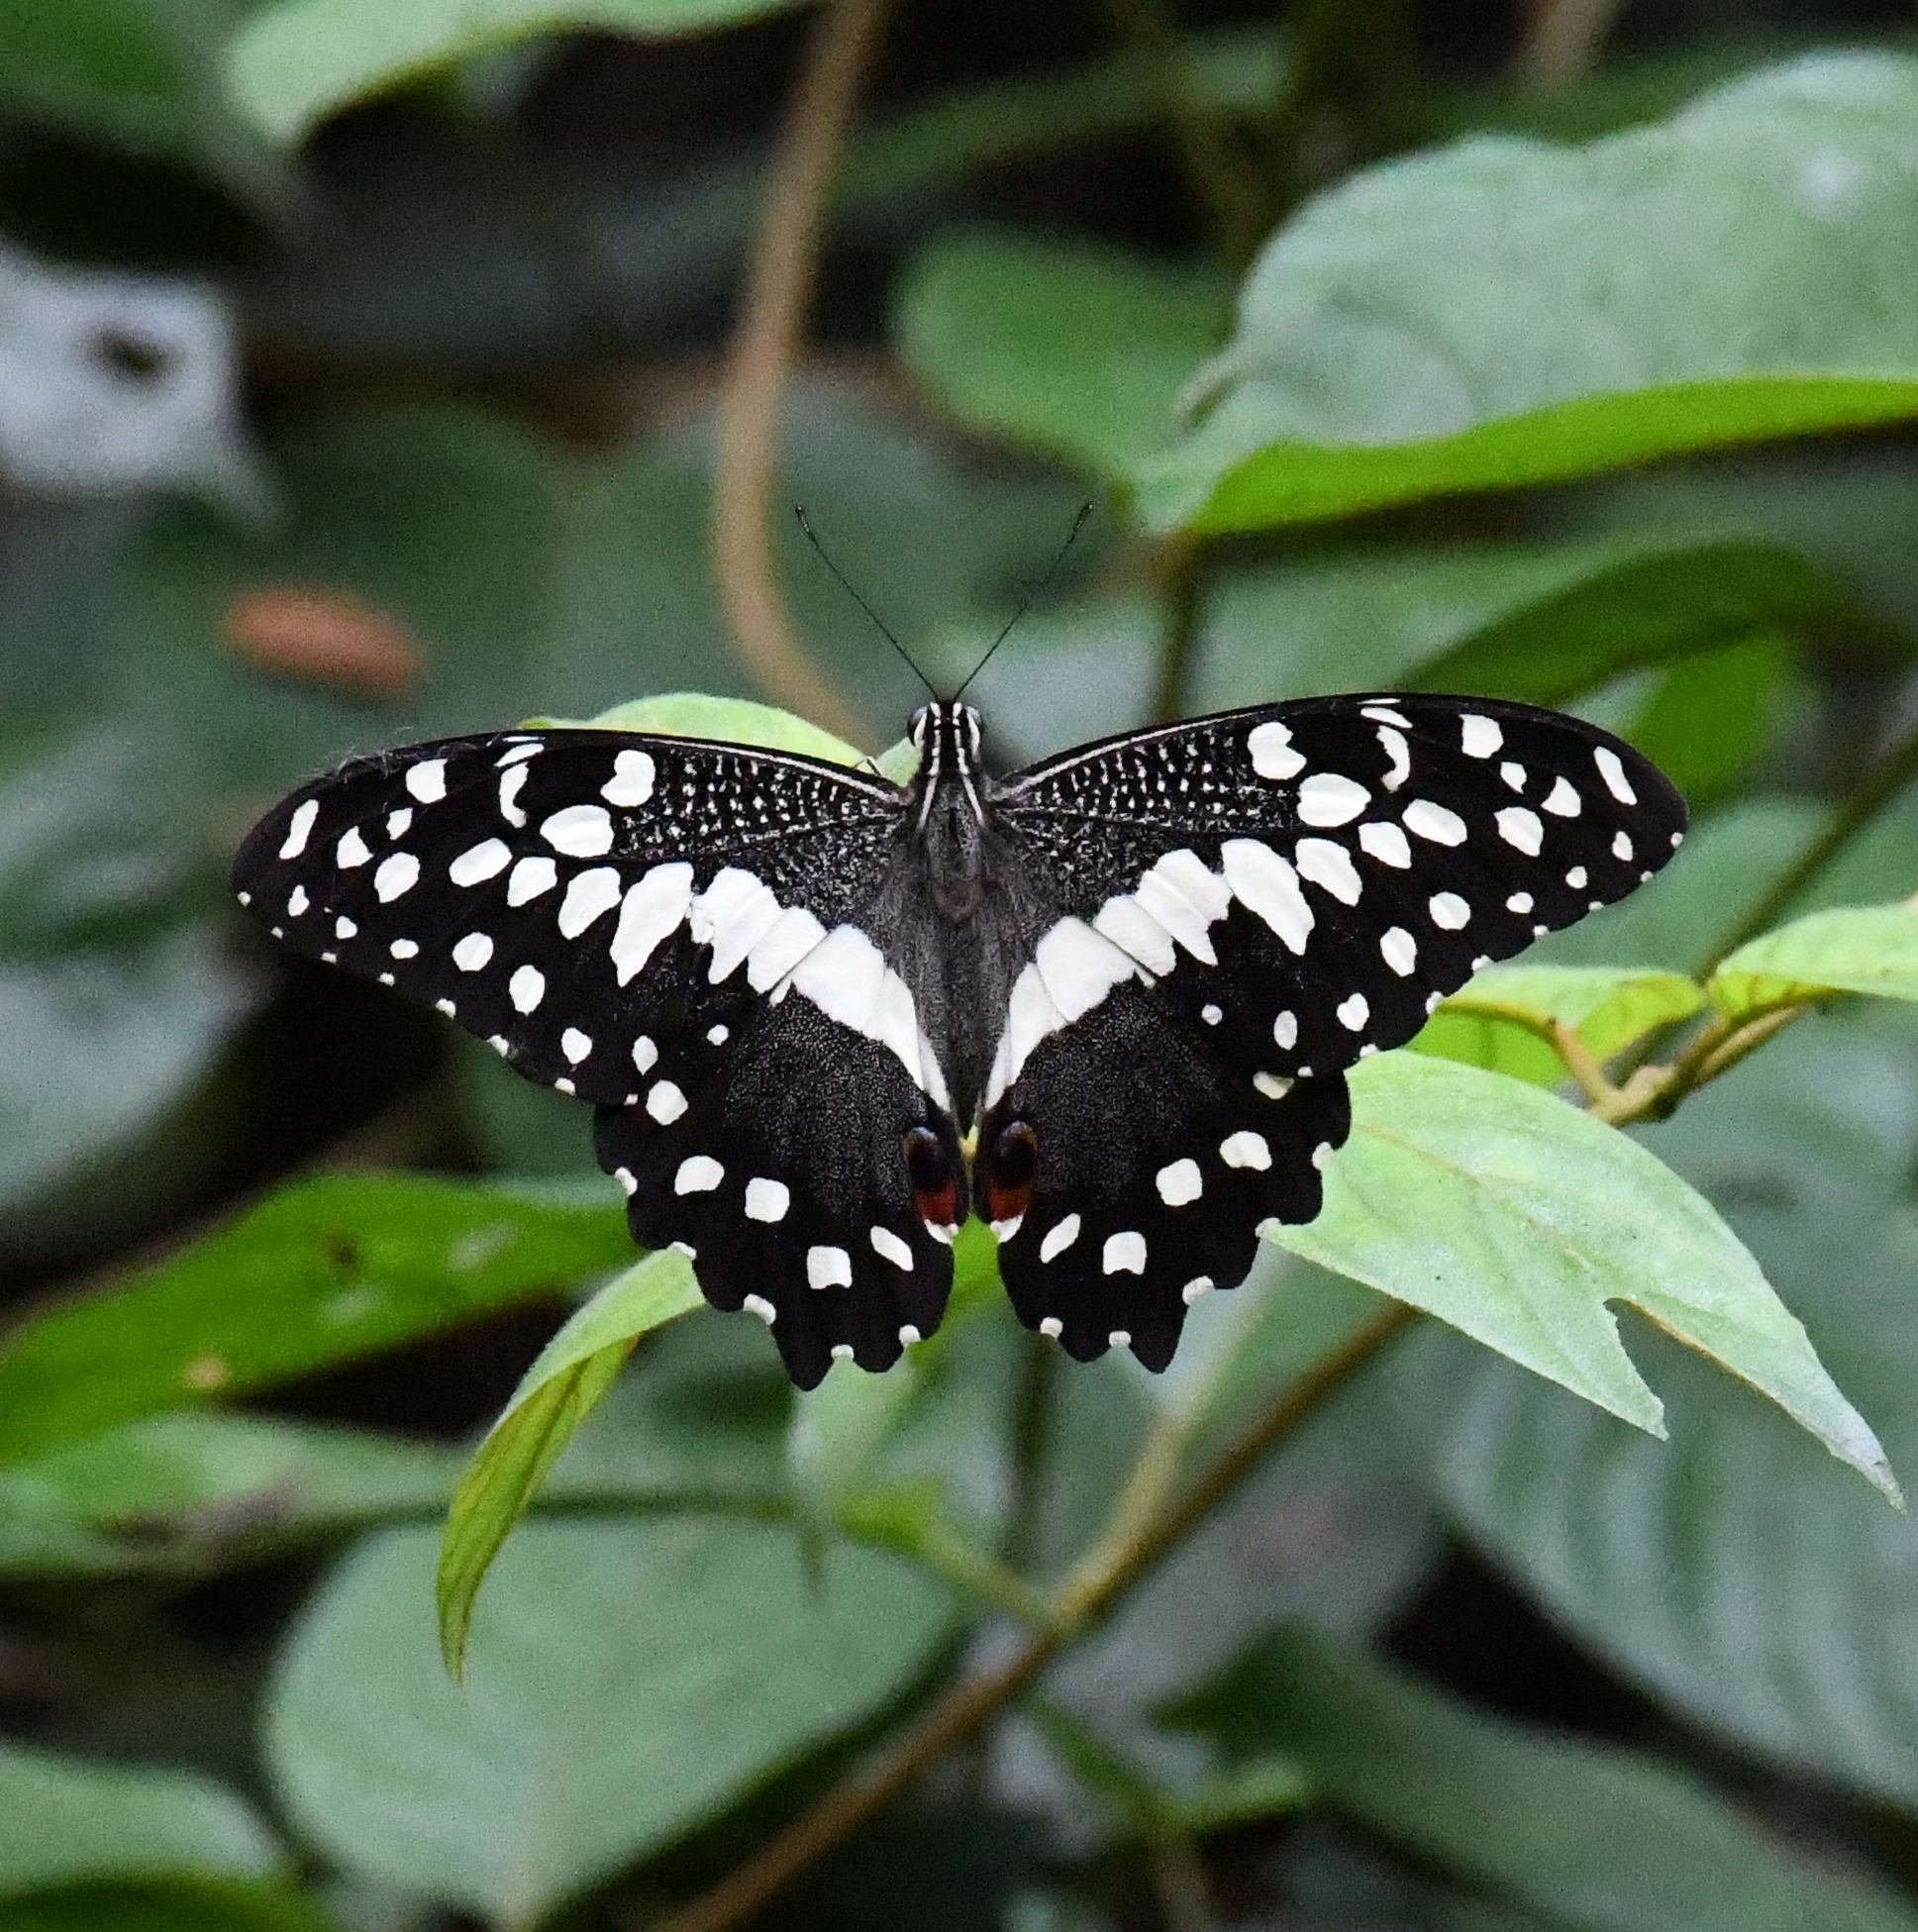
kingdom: Animalia
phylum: Arthropoda
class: Insecta
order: Lepidoptera
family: Papilionidae
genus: Papilio
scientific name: Papilio demodocus
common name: Christmas butterfly
